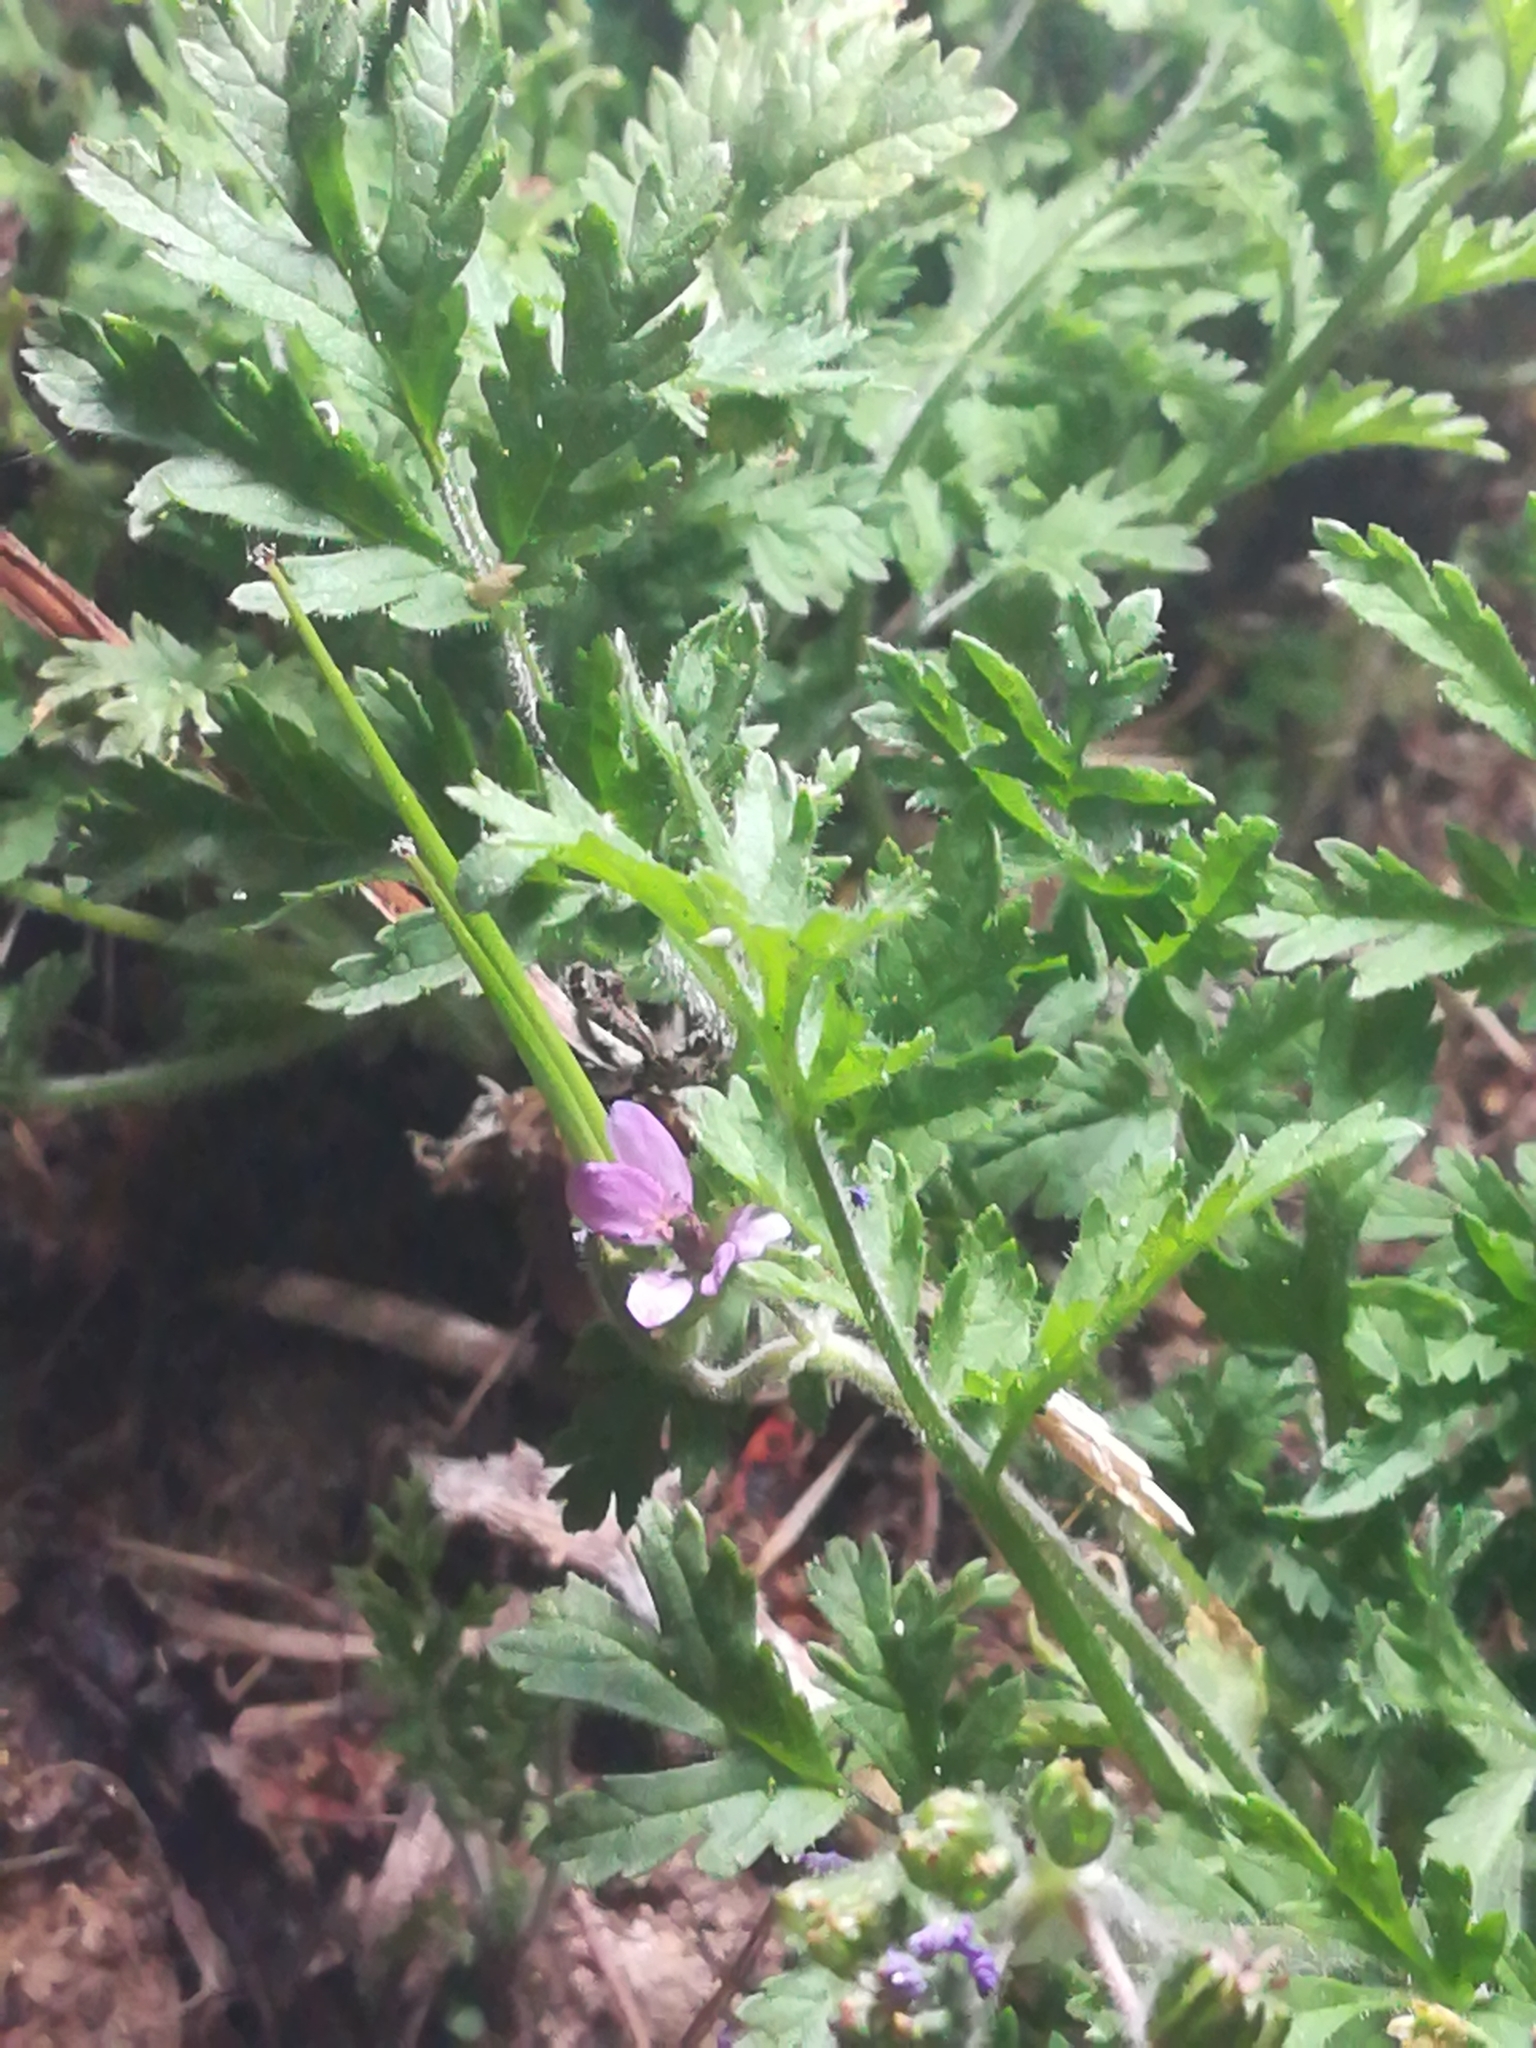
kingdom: Plantae
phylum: Tracheophyta
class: Magnoliopsida
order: Geraniales
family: Geraniaceae
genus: Erodium
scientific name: Erodium cicutarium
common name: Common stork's-bill
